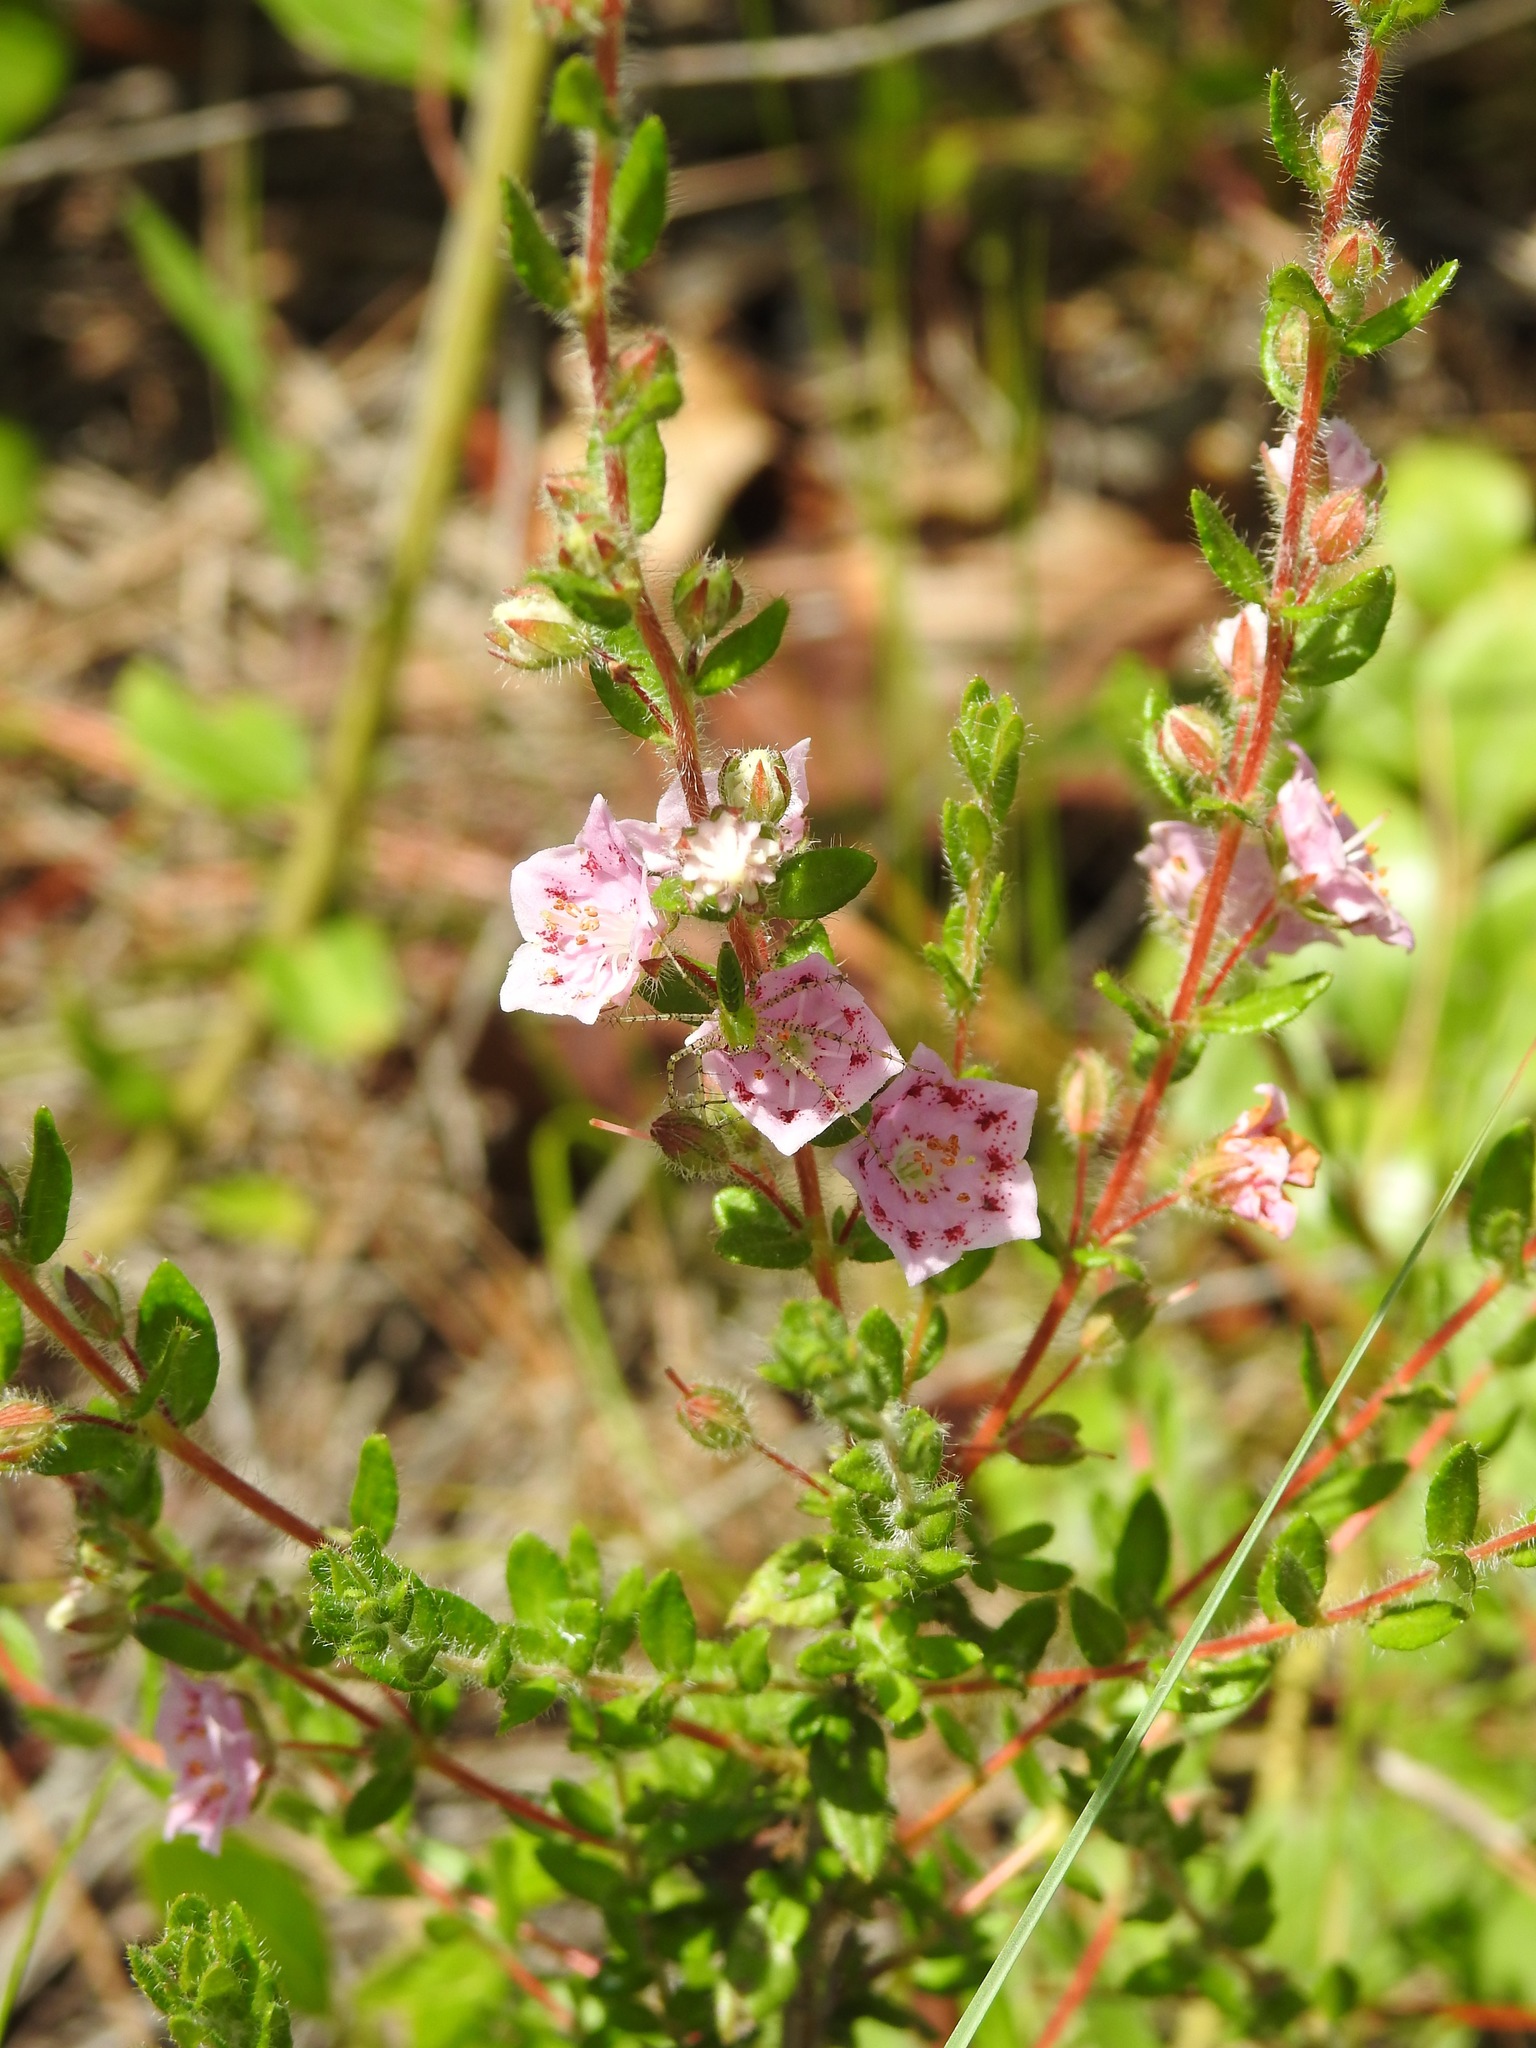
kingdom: Plantae
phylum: Tracheophyta
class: Magnoliopsida
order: Ericales
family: Ericaceae
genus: Kalmia
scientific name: Kalmia hirsuta
